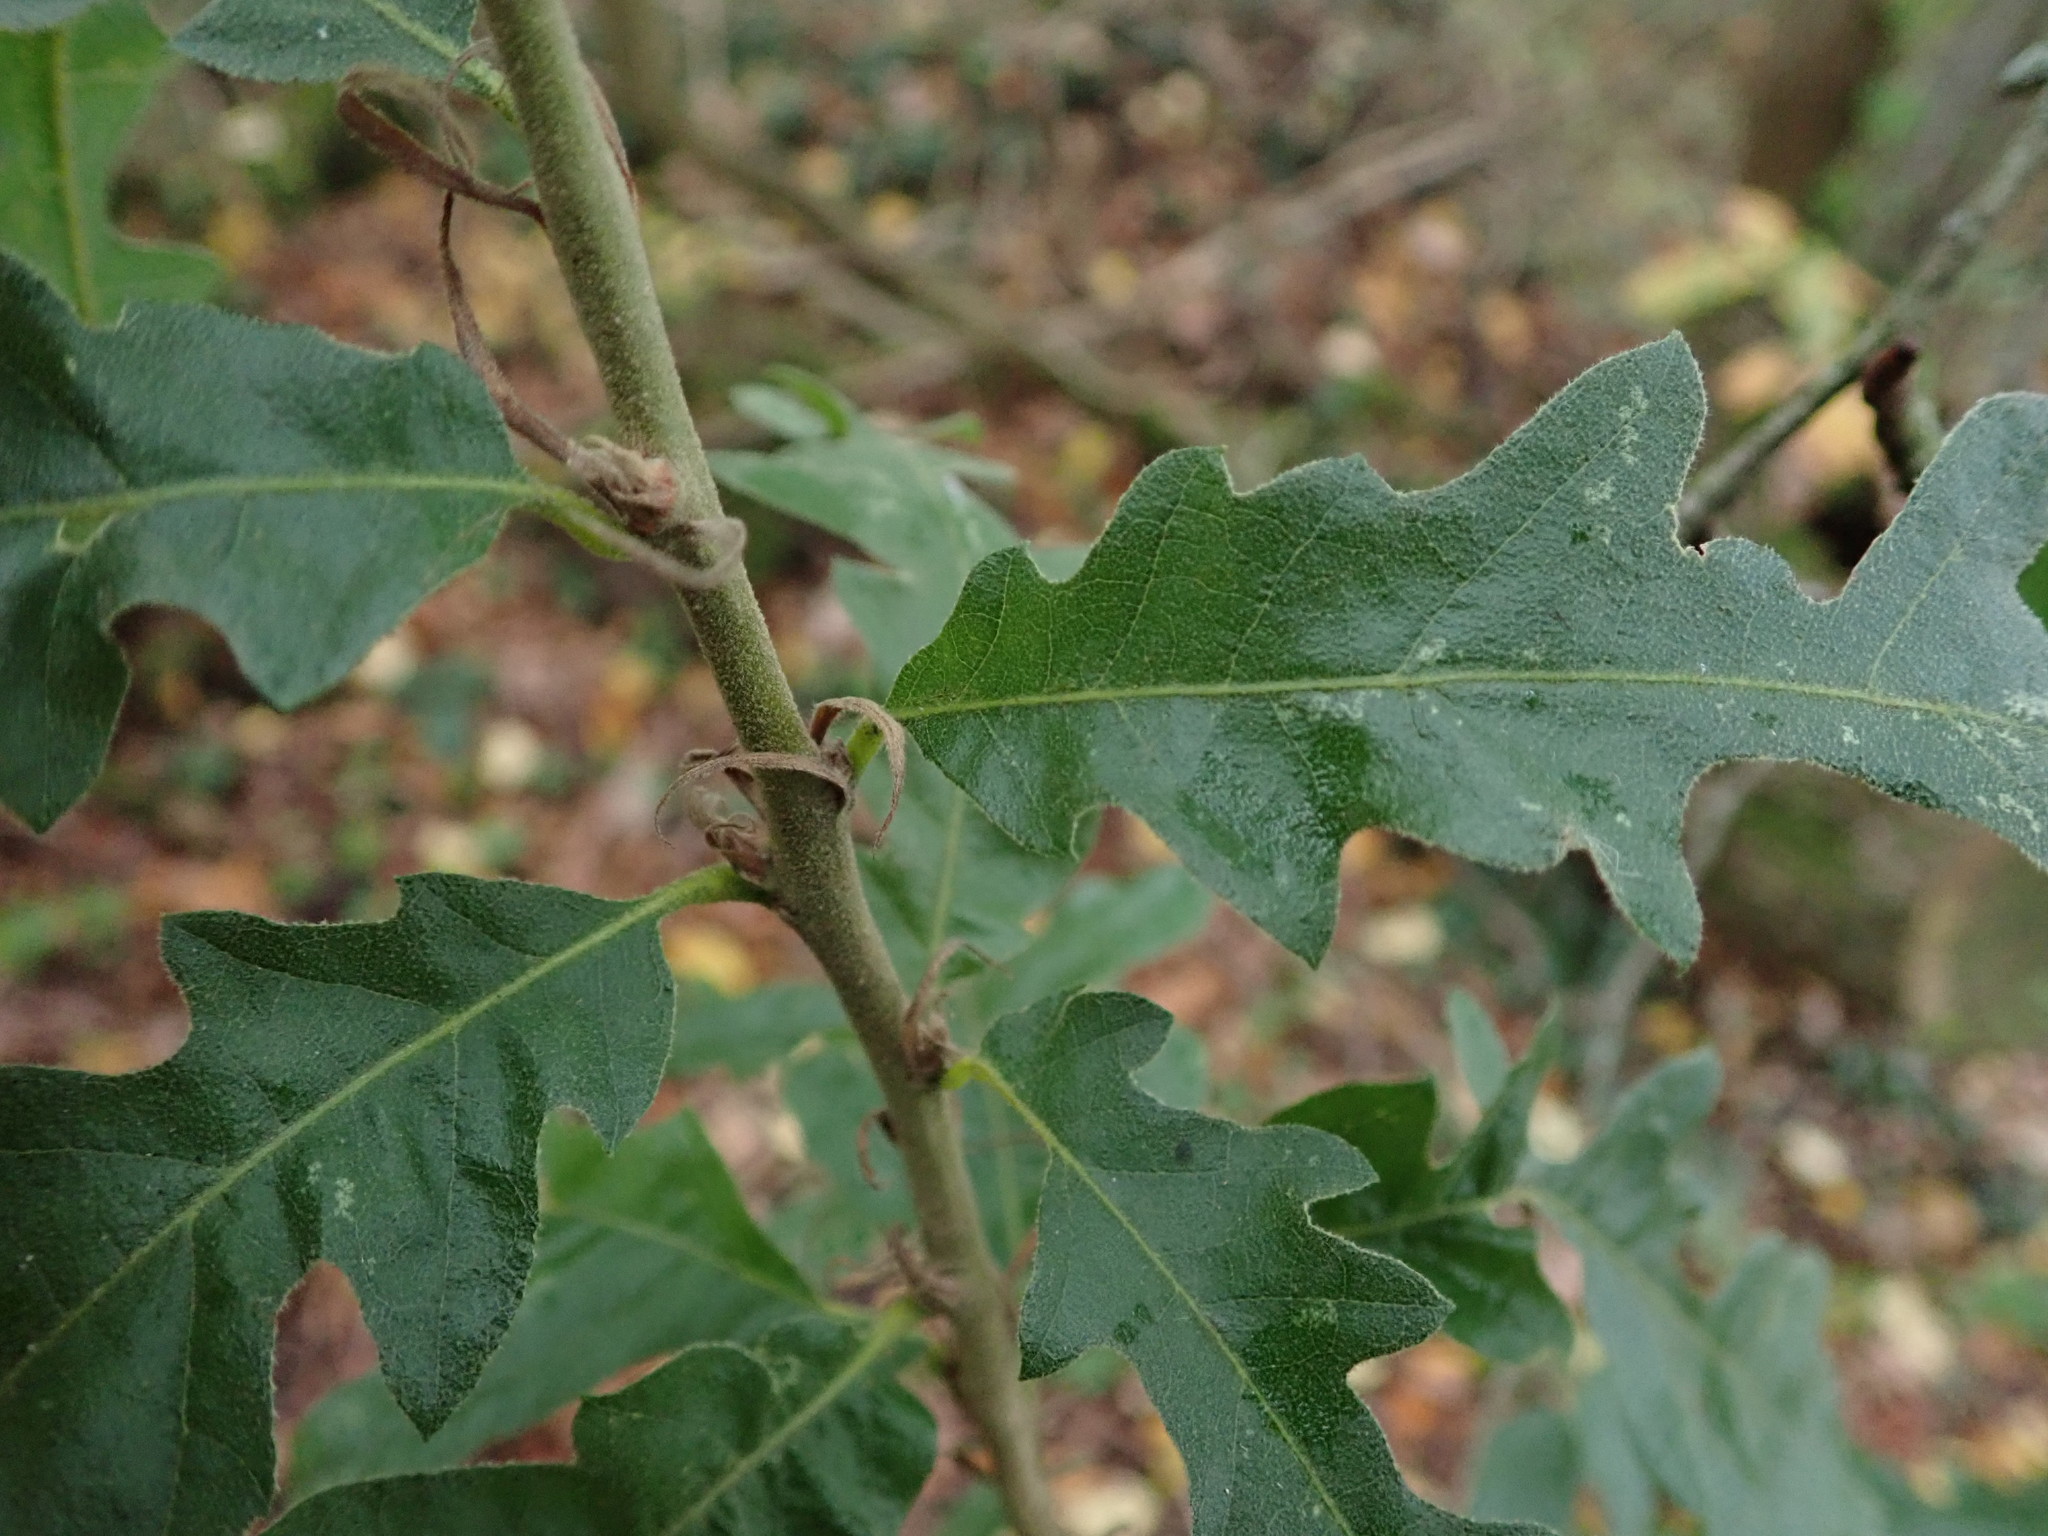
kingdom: Plantae
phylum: Tracheophyta
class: Magnoliopsida
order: Fagales
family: Fagaceae
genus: Quercus
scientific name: Quercus cerris
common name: Turkey oak
